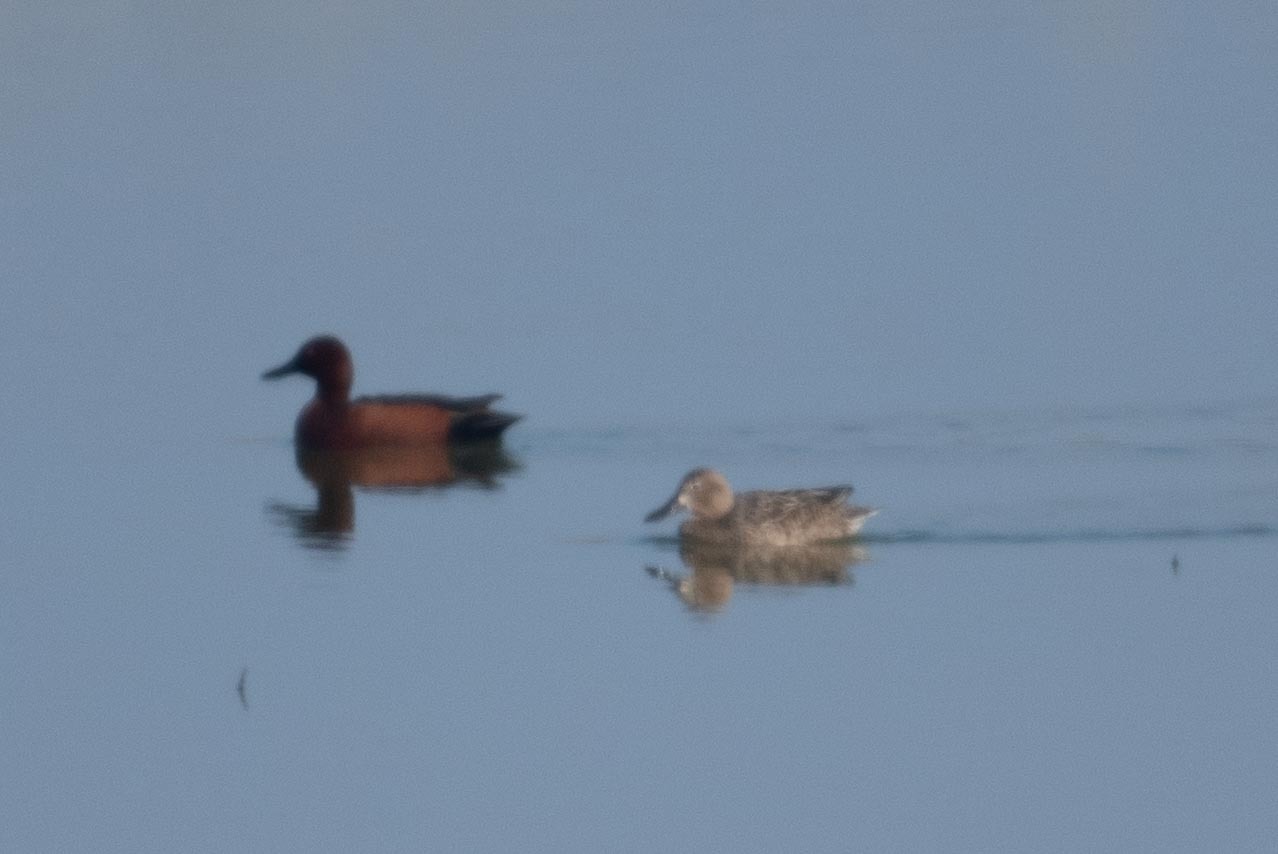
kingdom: Animalia
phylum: Chordata
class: Aves
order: Anseriformes
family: Anatidae
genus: Spatula
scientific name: Spatula cyanoptera
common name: Cinnamon teal
